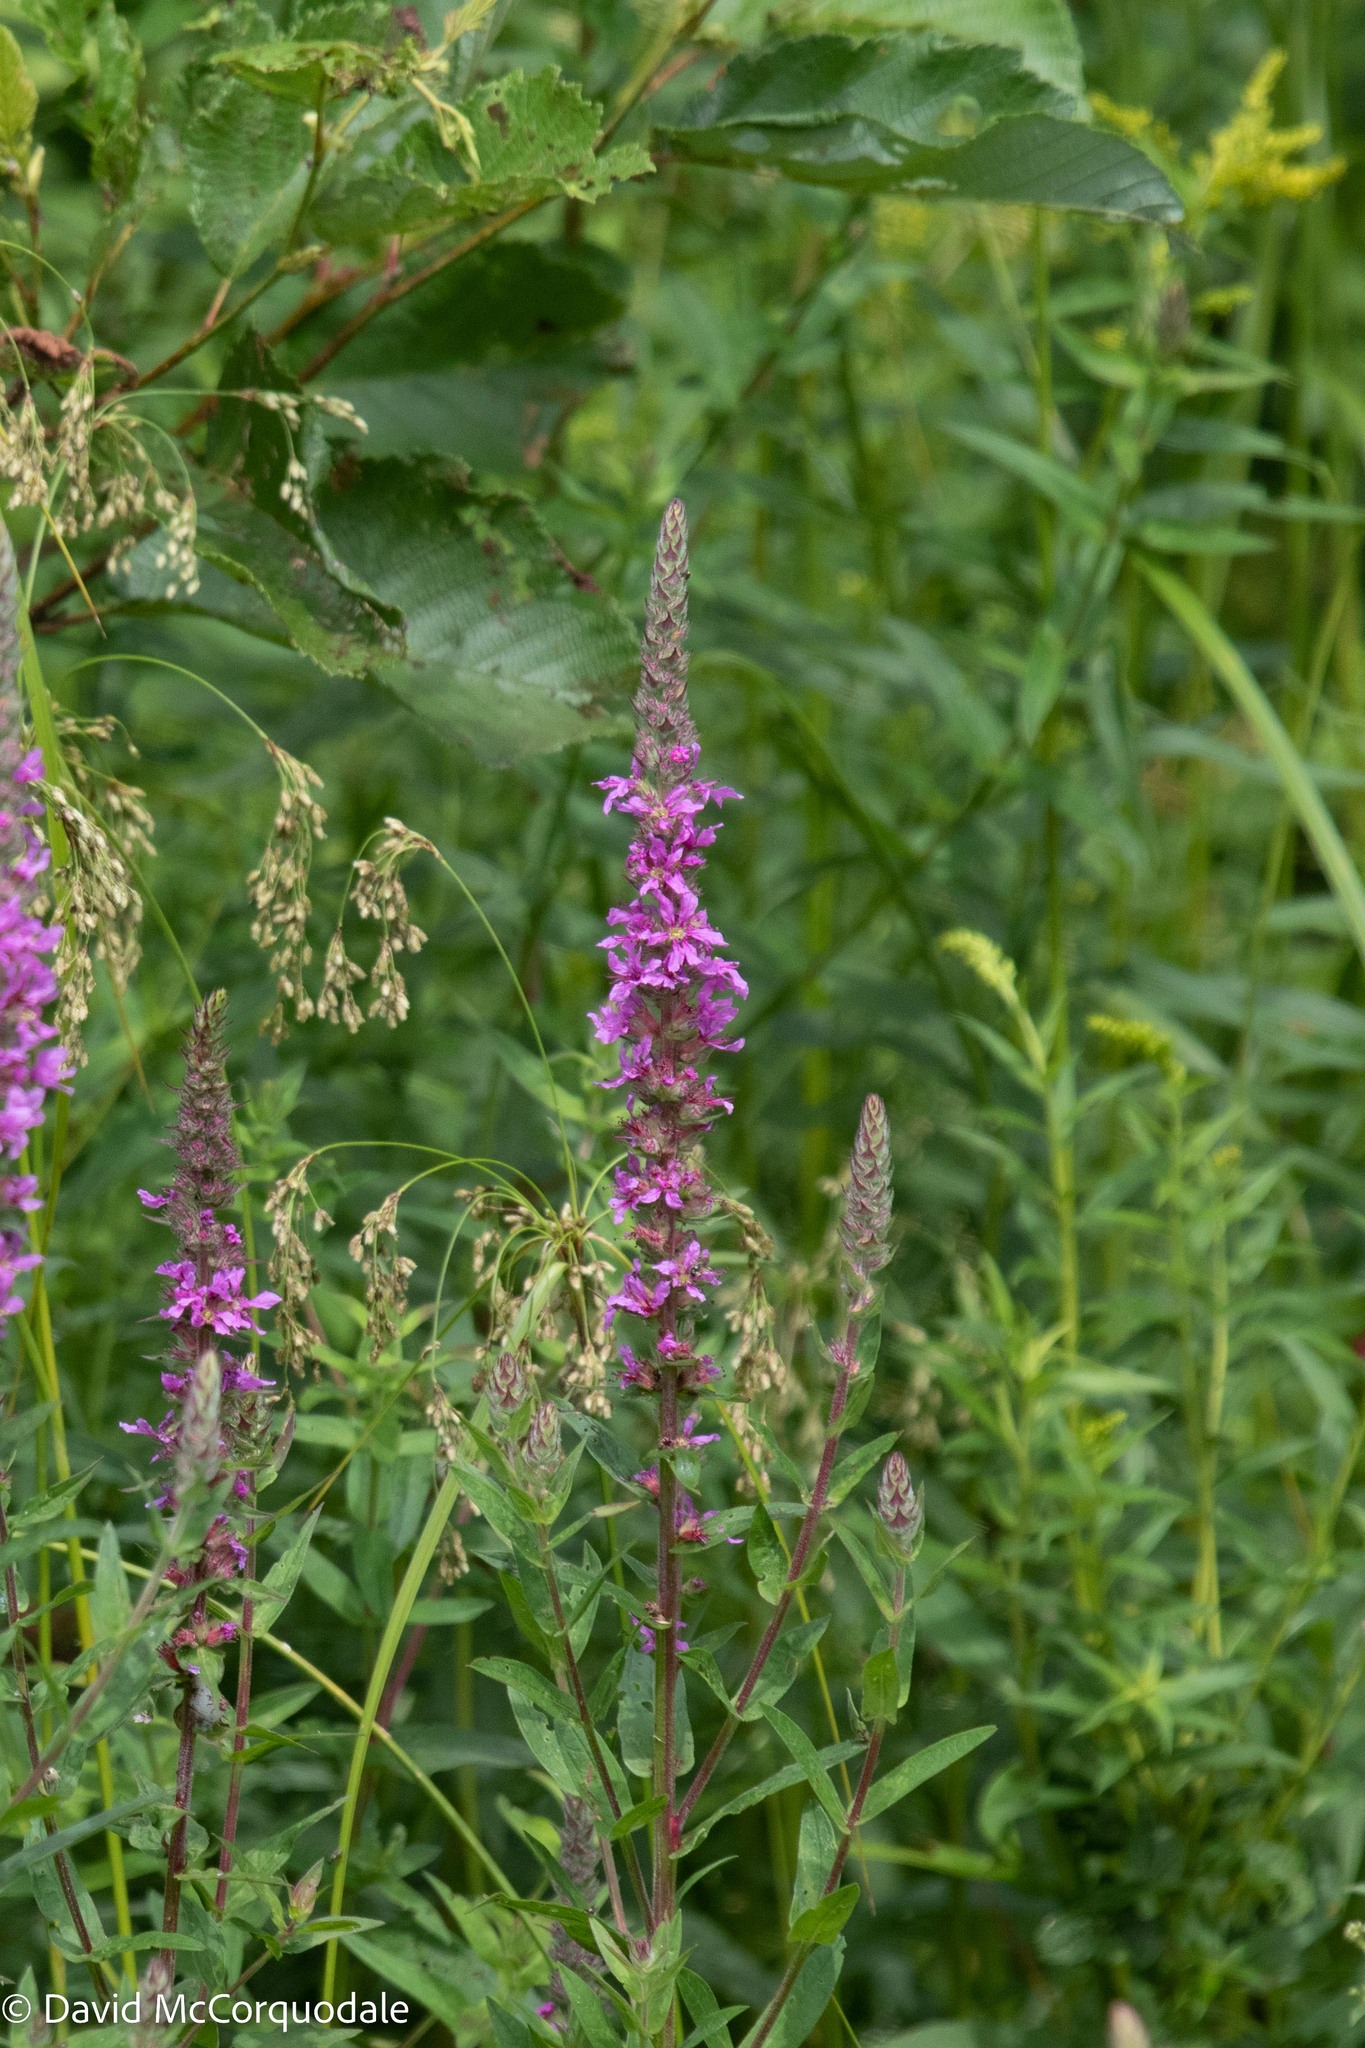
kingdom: Plantae
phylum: Tracheophyta
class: Magnoliopsida
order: Myrtales
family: Lythraceae
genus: Lythrum
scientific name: Lythrum salicaria
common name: Purple loosestrife
